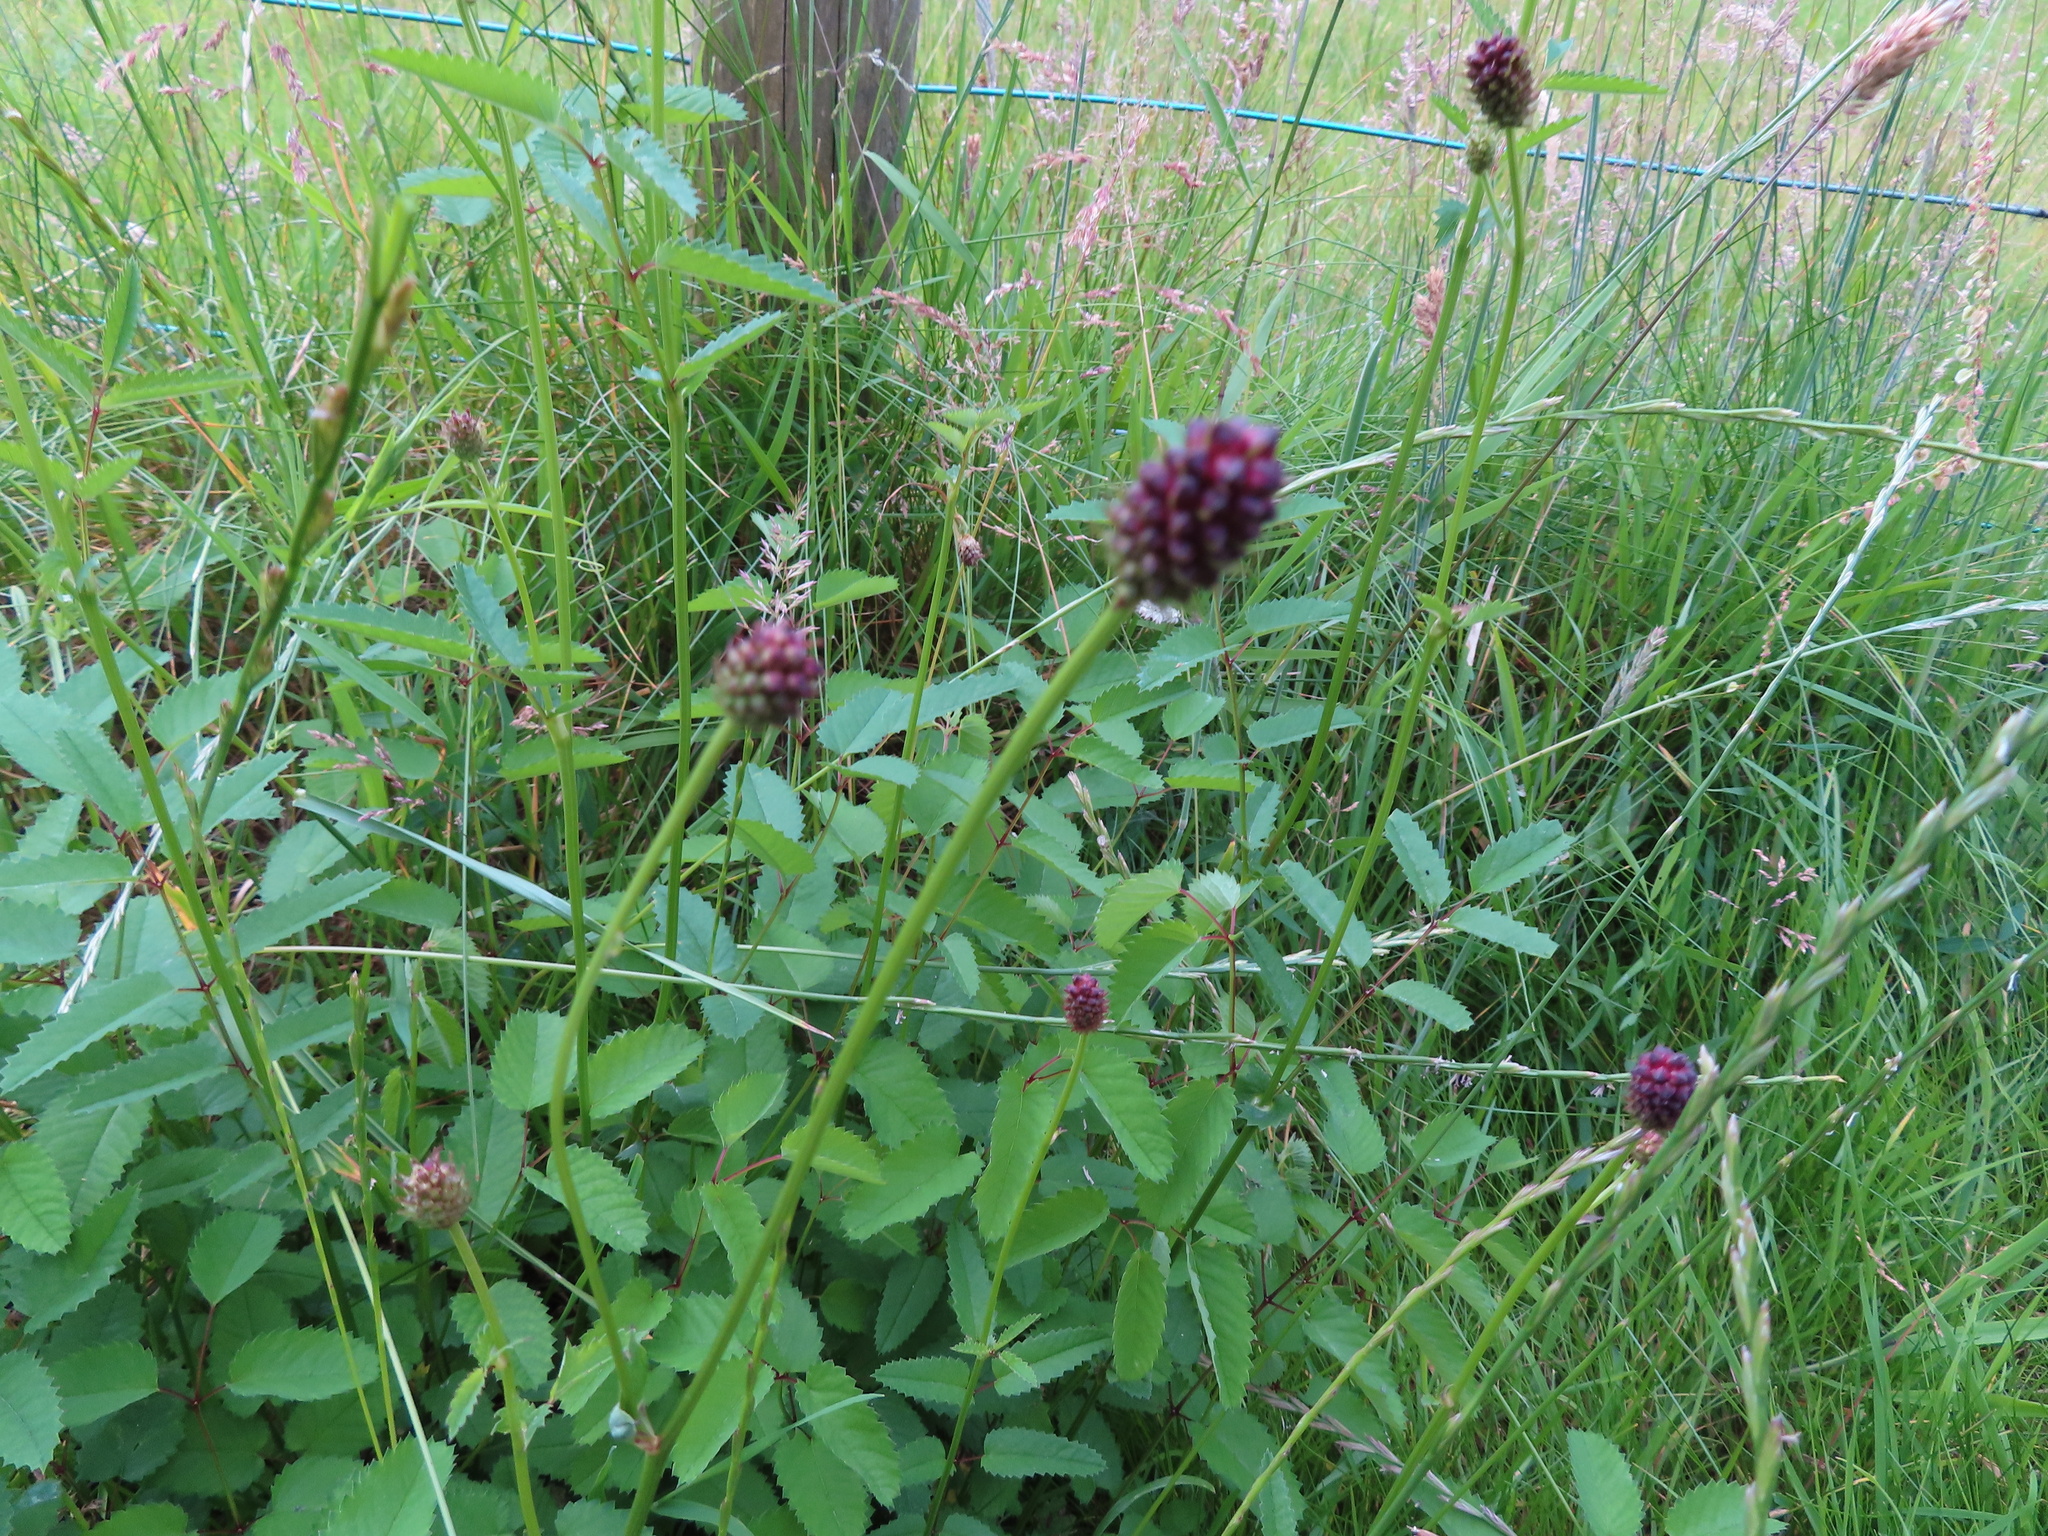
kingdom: Plantae
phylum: Tracheophyta
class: Magnoliopsida
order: Rosales
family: Rosaceae
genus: Sanguisorba
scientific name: Sanguisorba officinalis
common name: Great burnet
